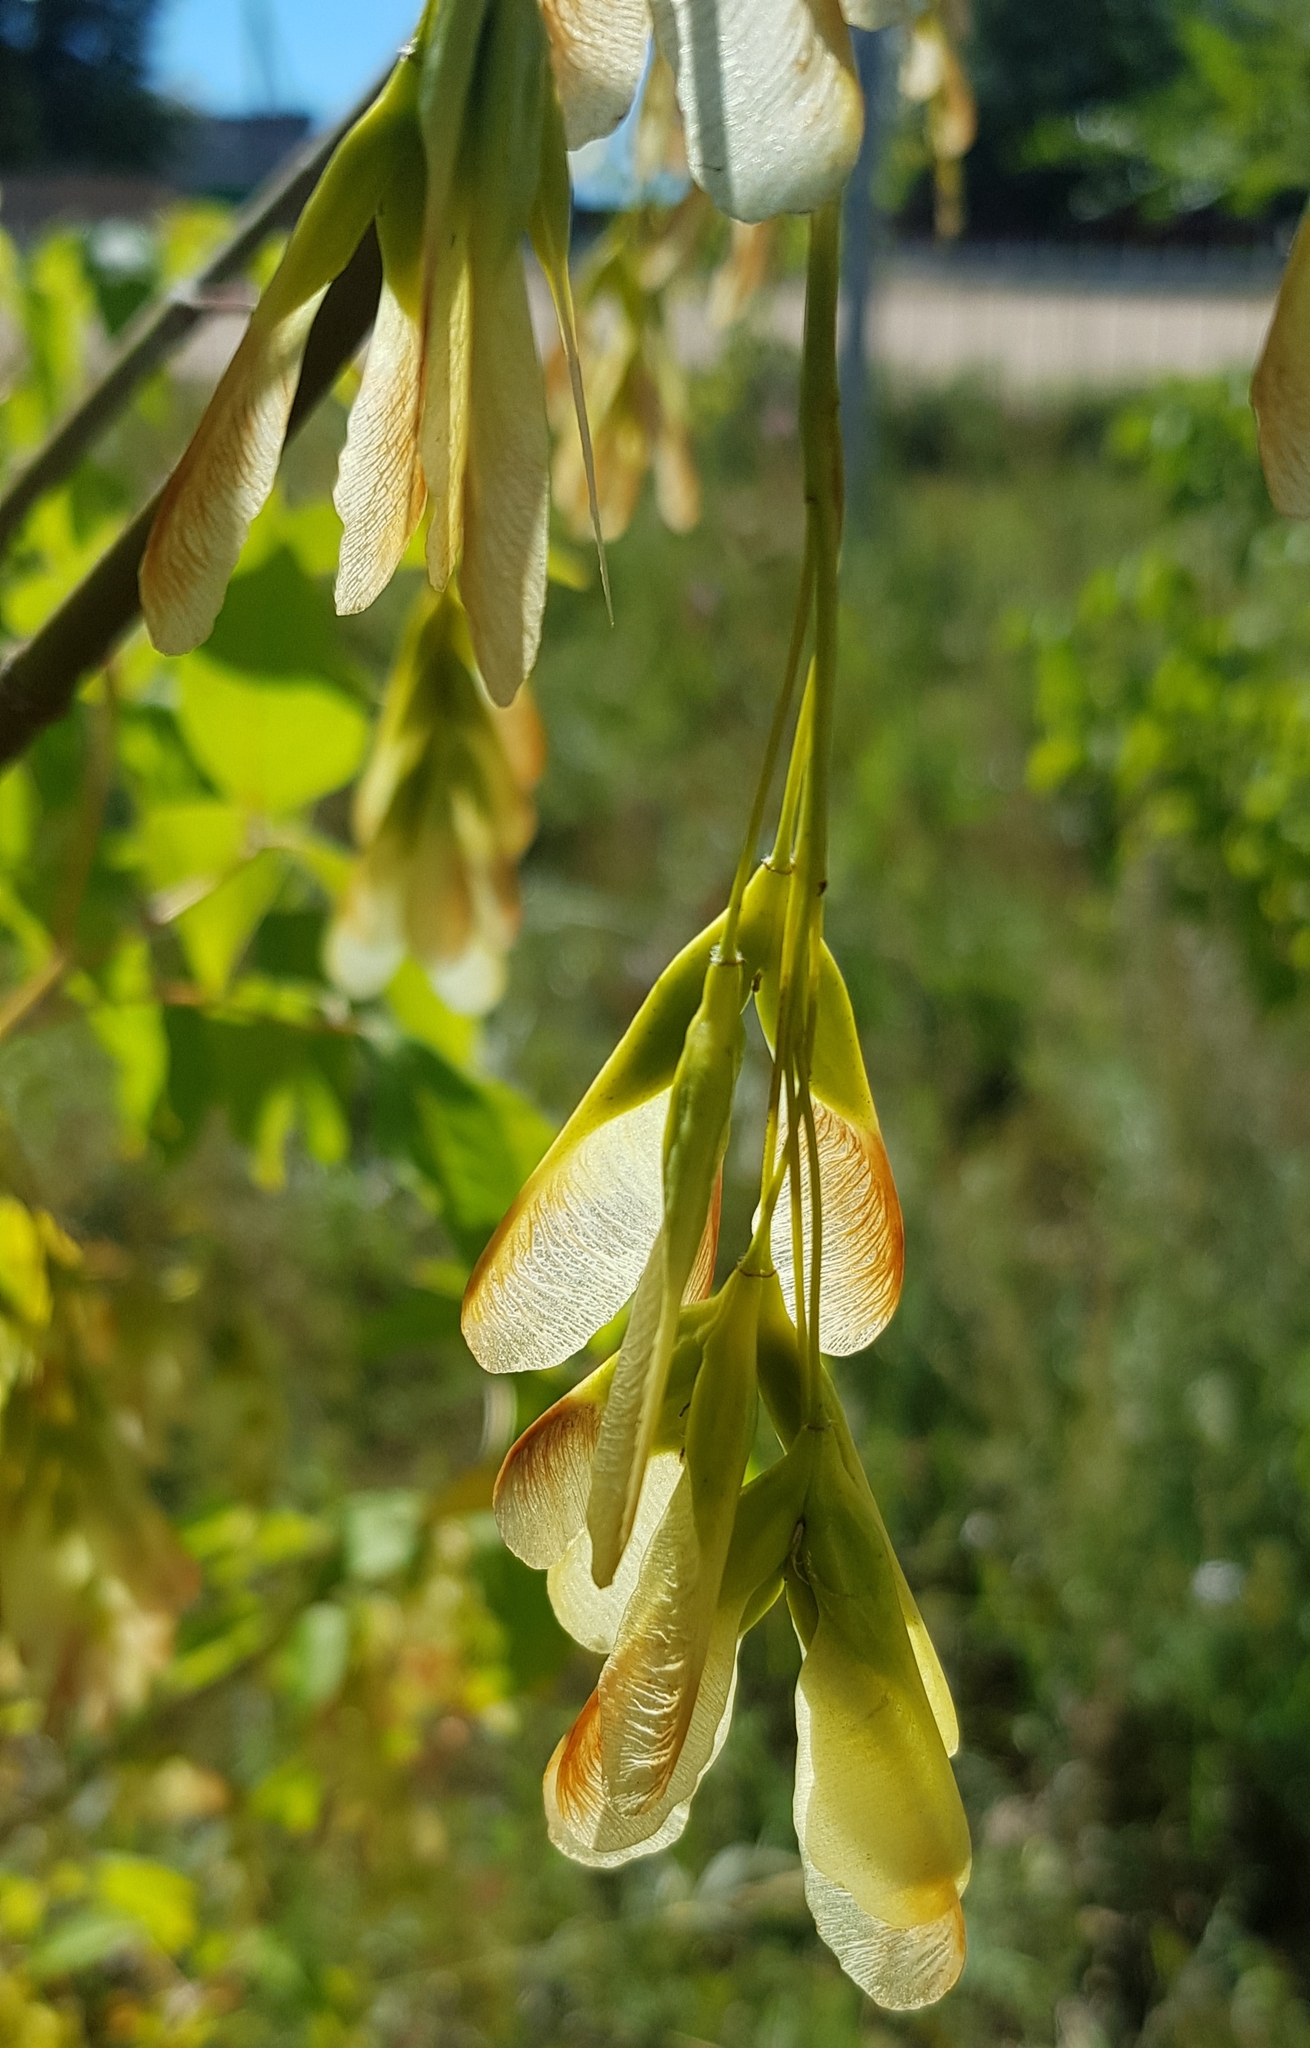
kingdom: Plantae
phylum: Tracheophyta
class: Magnoliopsida
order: Sapindales
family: Sapindaceae
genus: Acer
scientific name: Acer negundo
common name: Ashleaf maple
